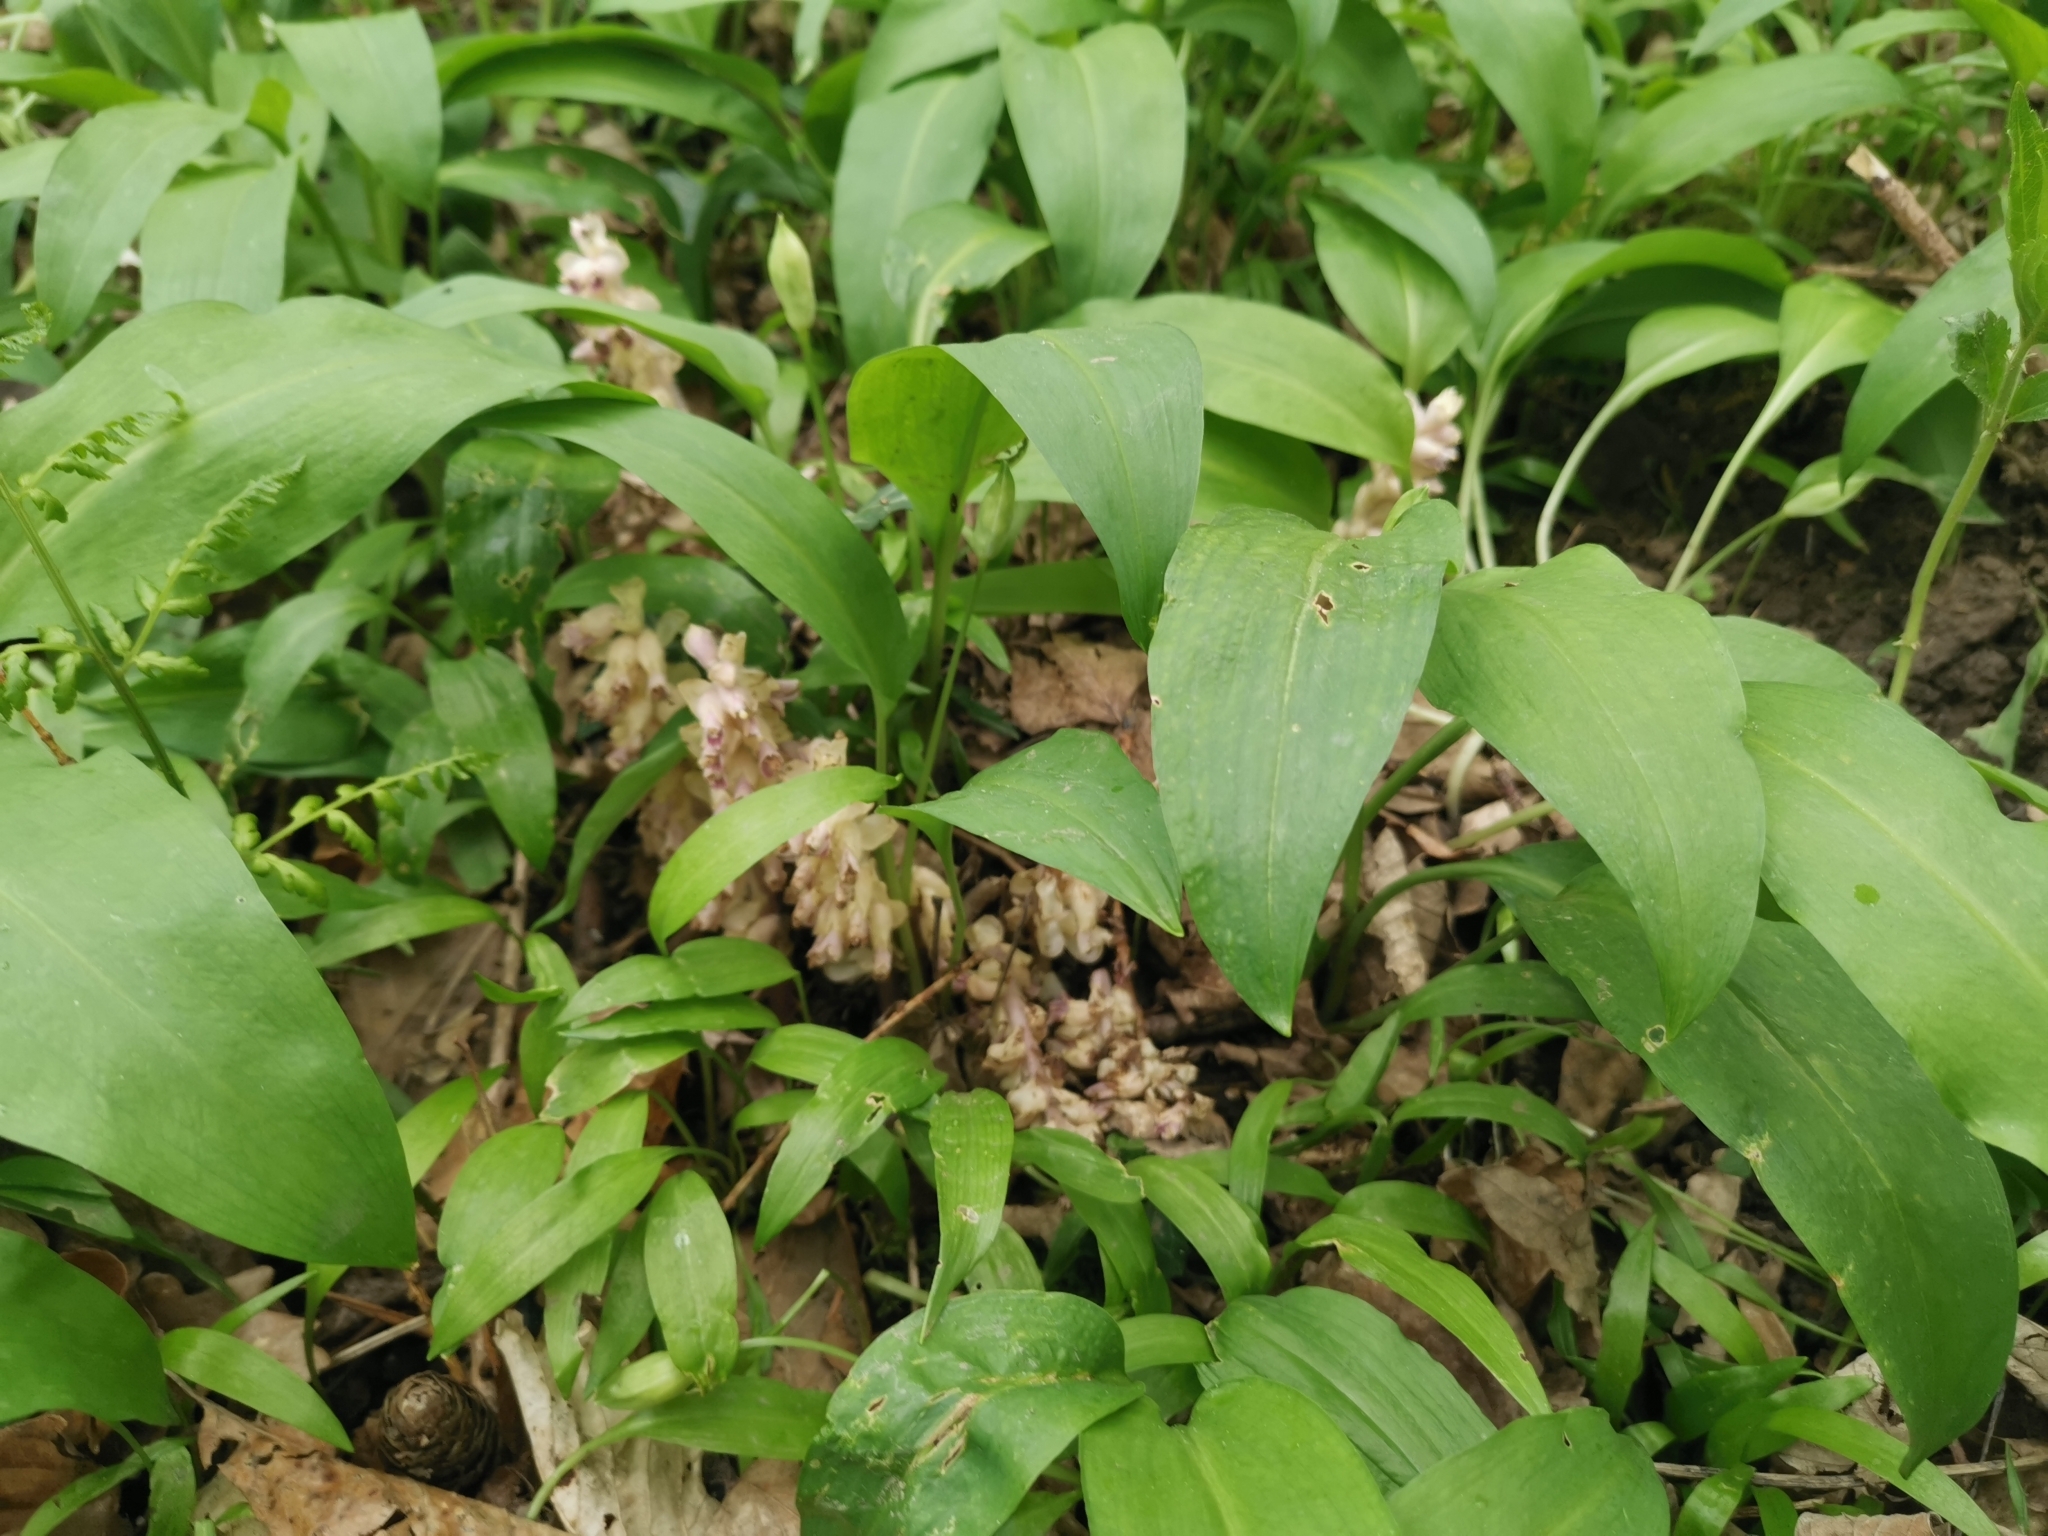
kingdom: Plantae
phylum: Tracheophyta
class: Magnoliopsida
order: Lamiales
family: Orobanchaceae
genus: Lathraea
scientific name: Lathraea squamaria
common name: Toothwort
